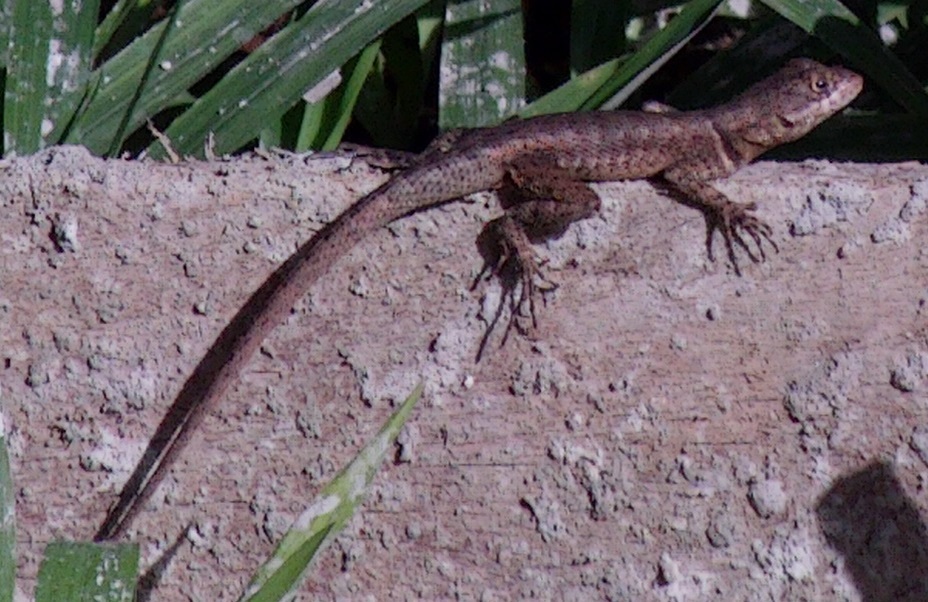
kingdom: Animalia
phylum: Chordata
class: Squamata
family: Tropiduridae
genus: Tropidurus
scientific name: Tropidurus hispidus
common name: Peters' lava lizard
